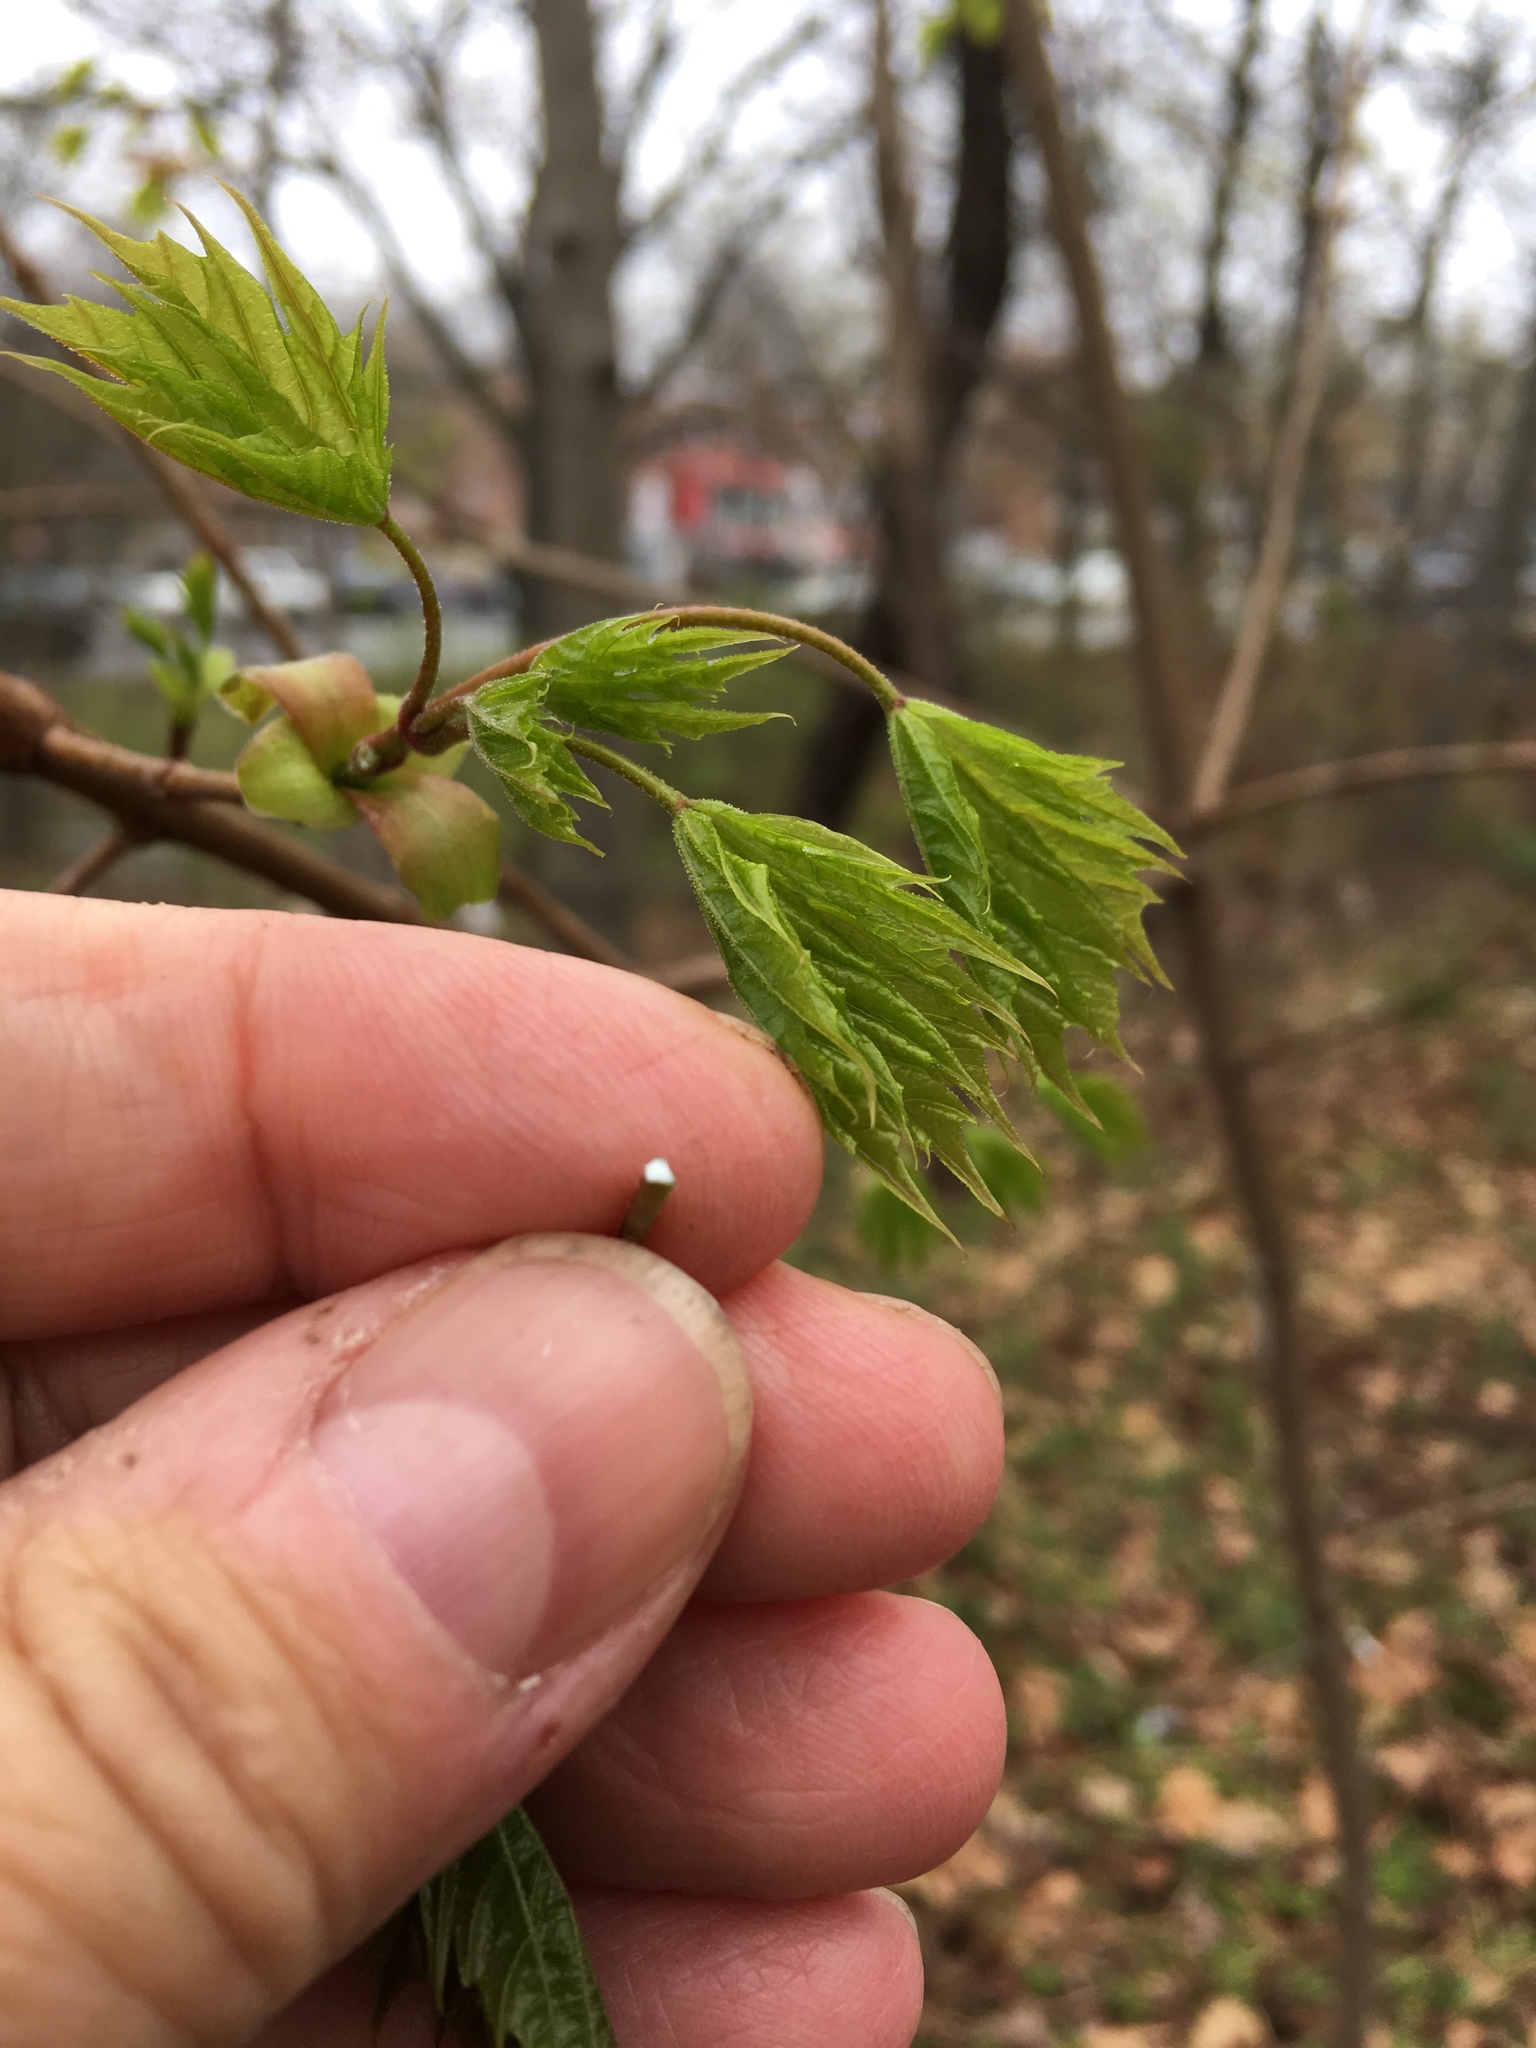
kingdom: Plantae
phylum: Tracheophyta
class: Magnoliopsida
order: Sapindales
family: Sapindaceae
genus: Acer
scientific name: Acer platanoides
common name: Norway maple
